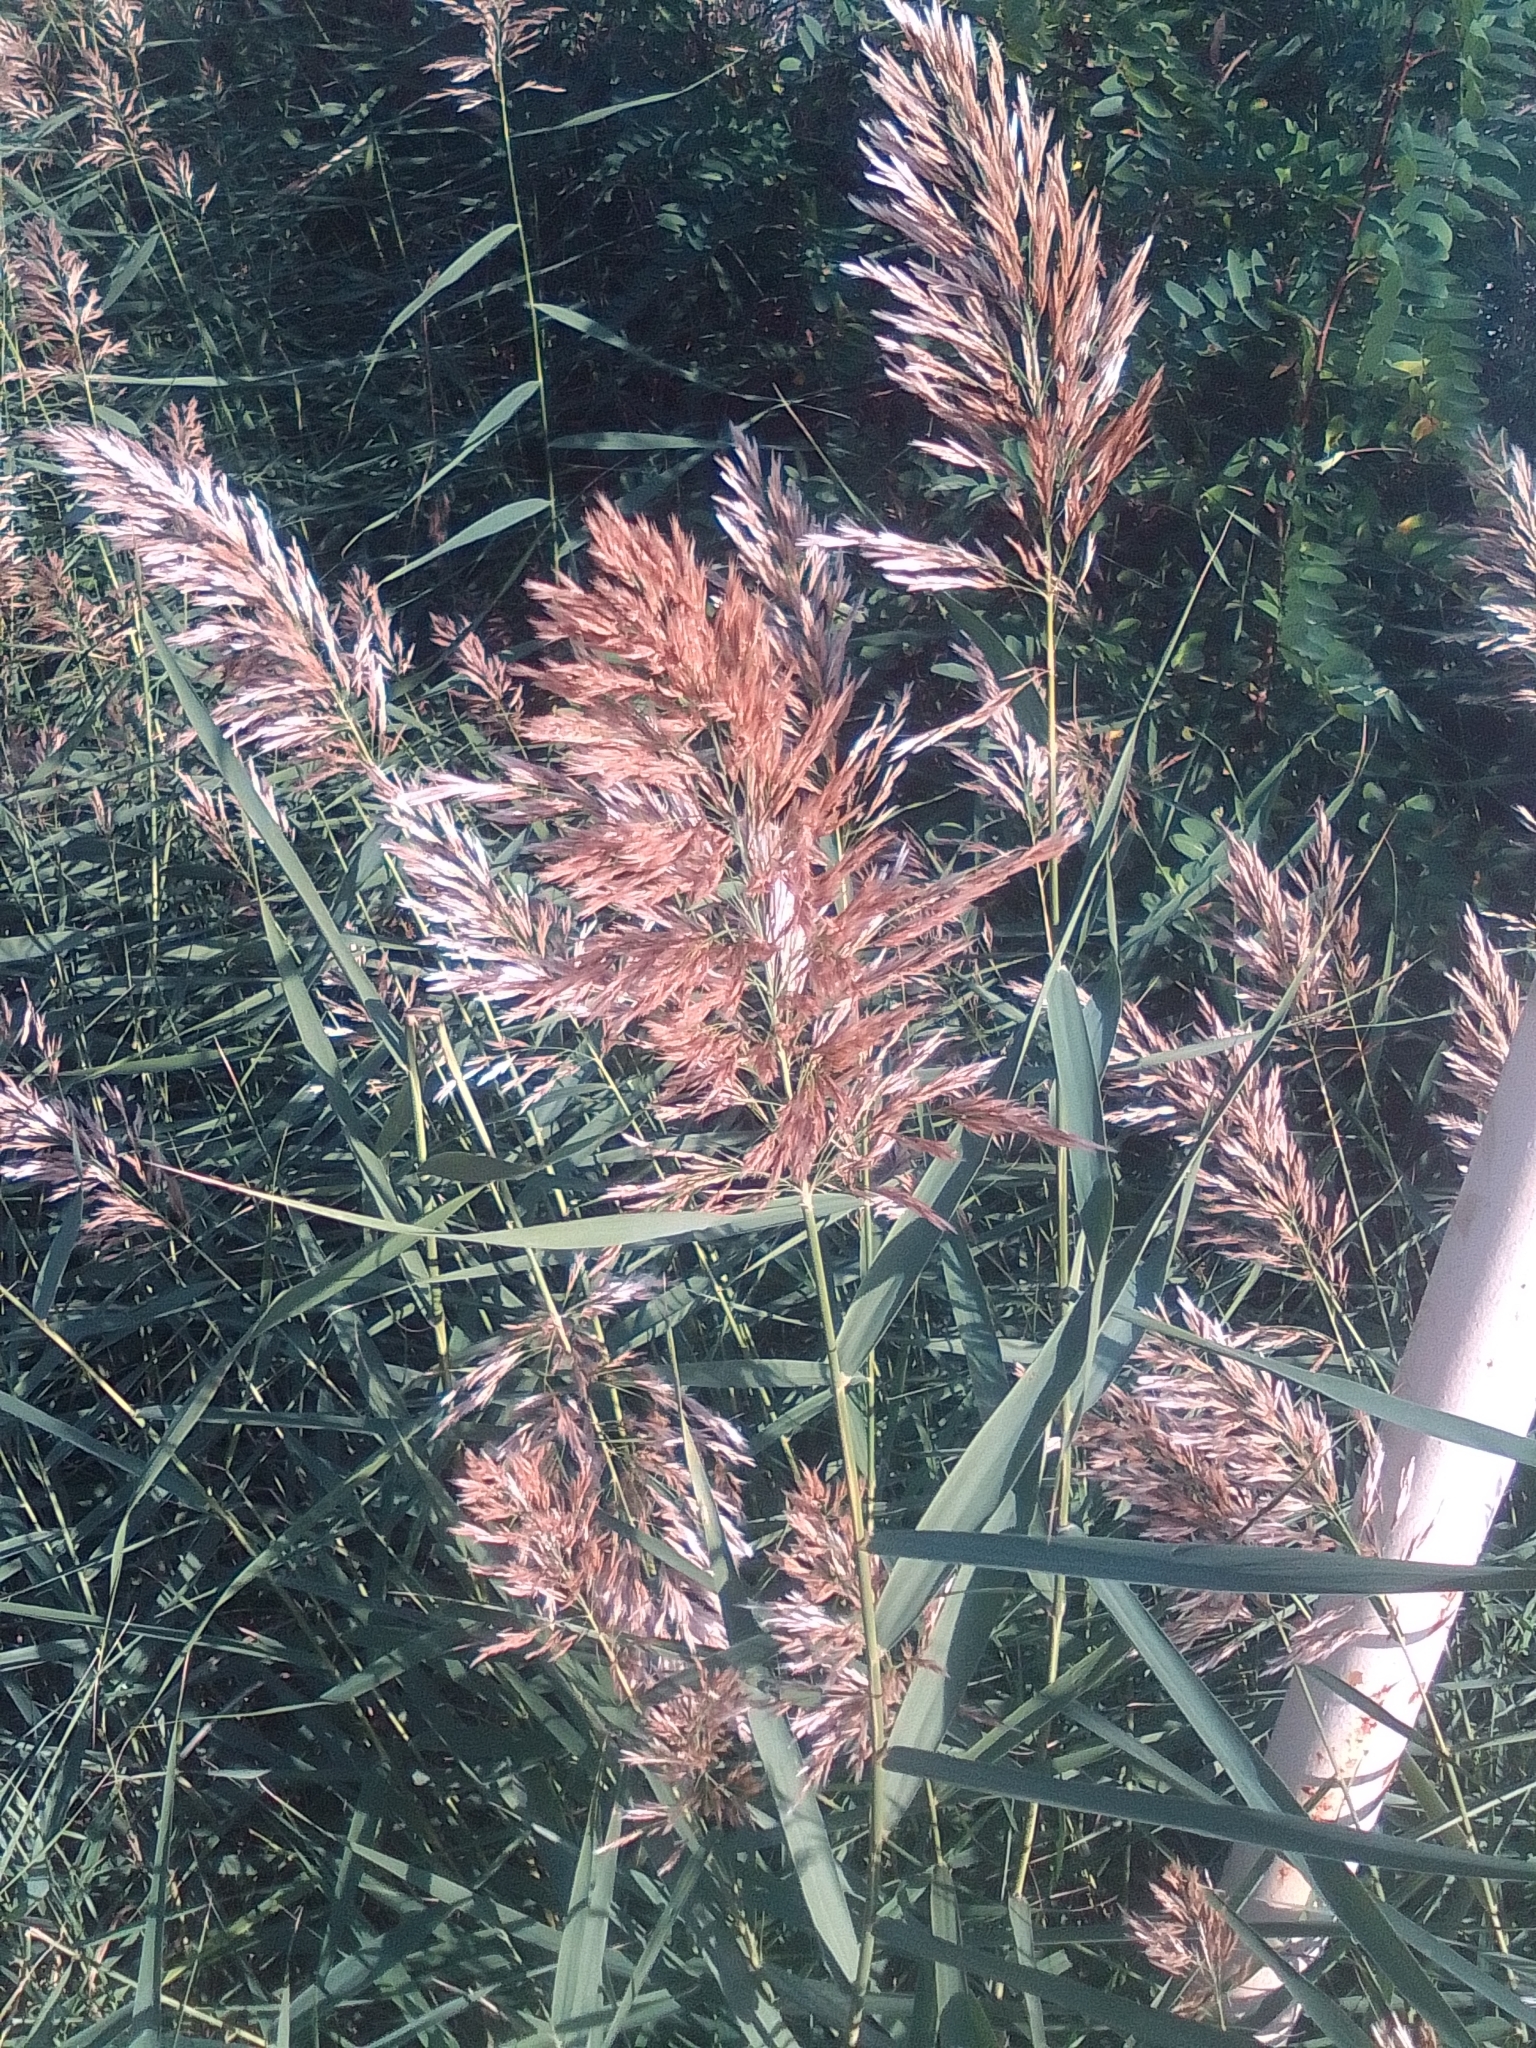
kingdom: Plantae
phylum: Tracheophyta
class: Liliopsida
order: Poales
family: Poaceae
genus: Phragmites
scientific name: Phragmites australis
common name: Common reed
